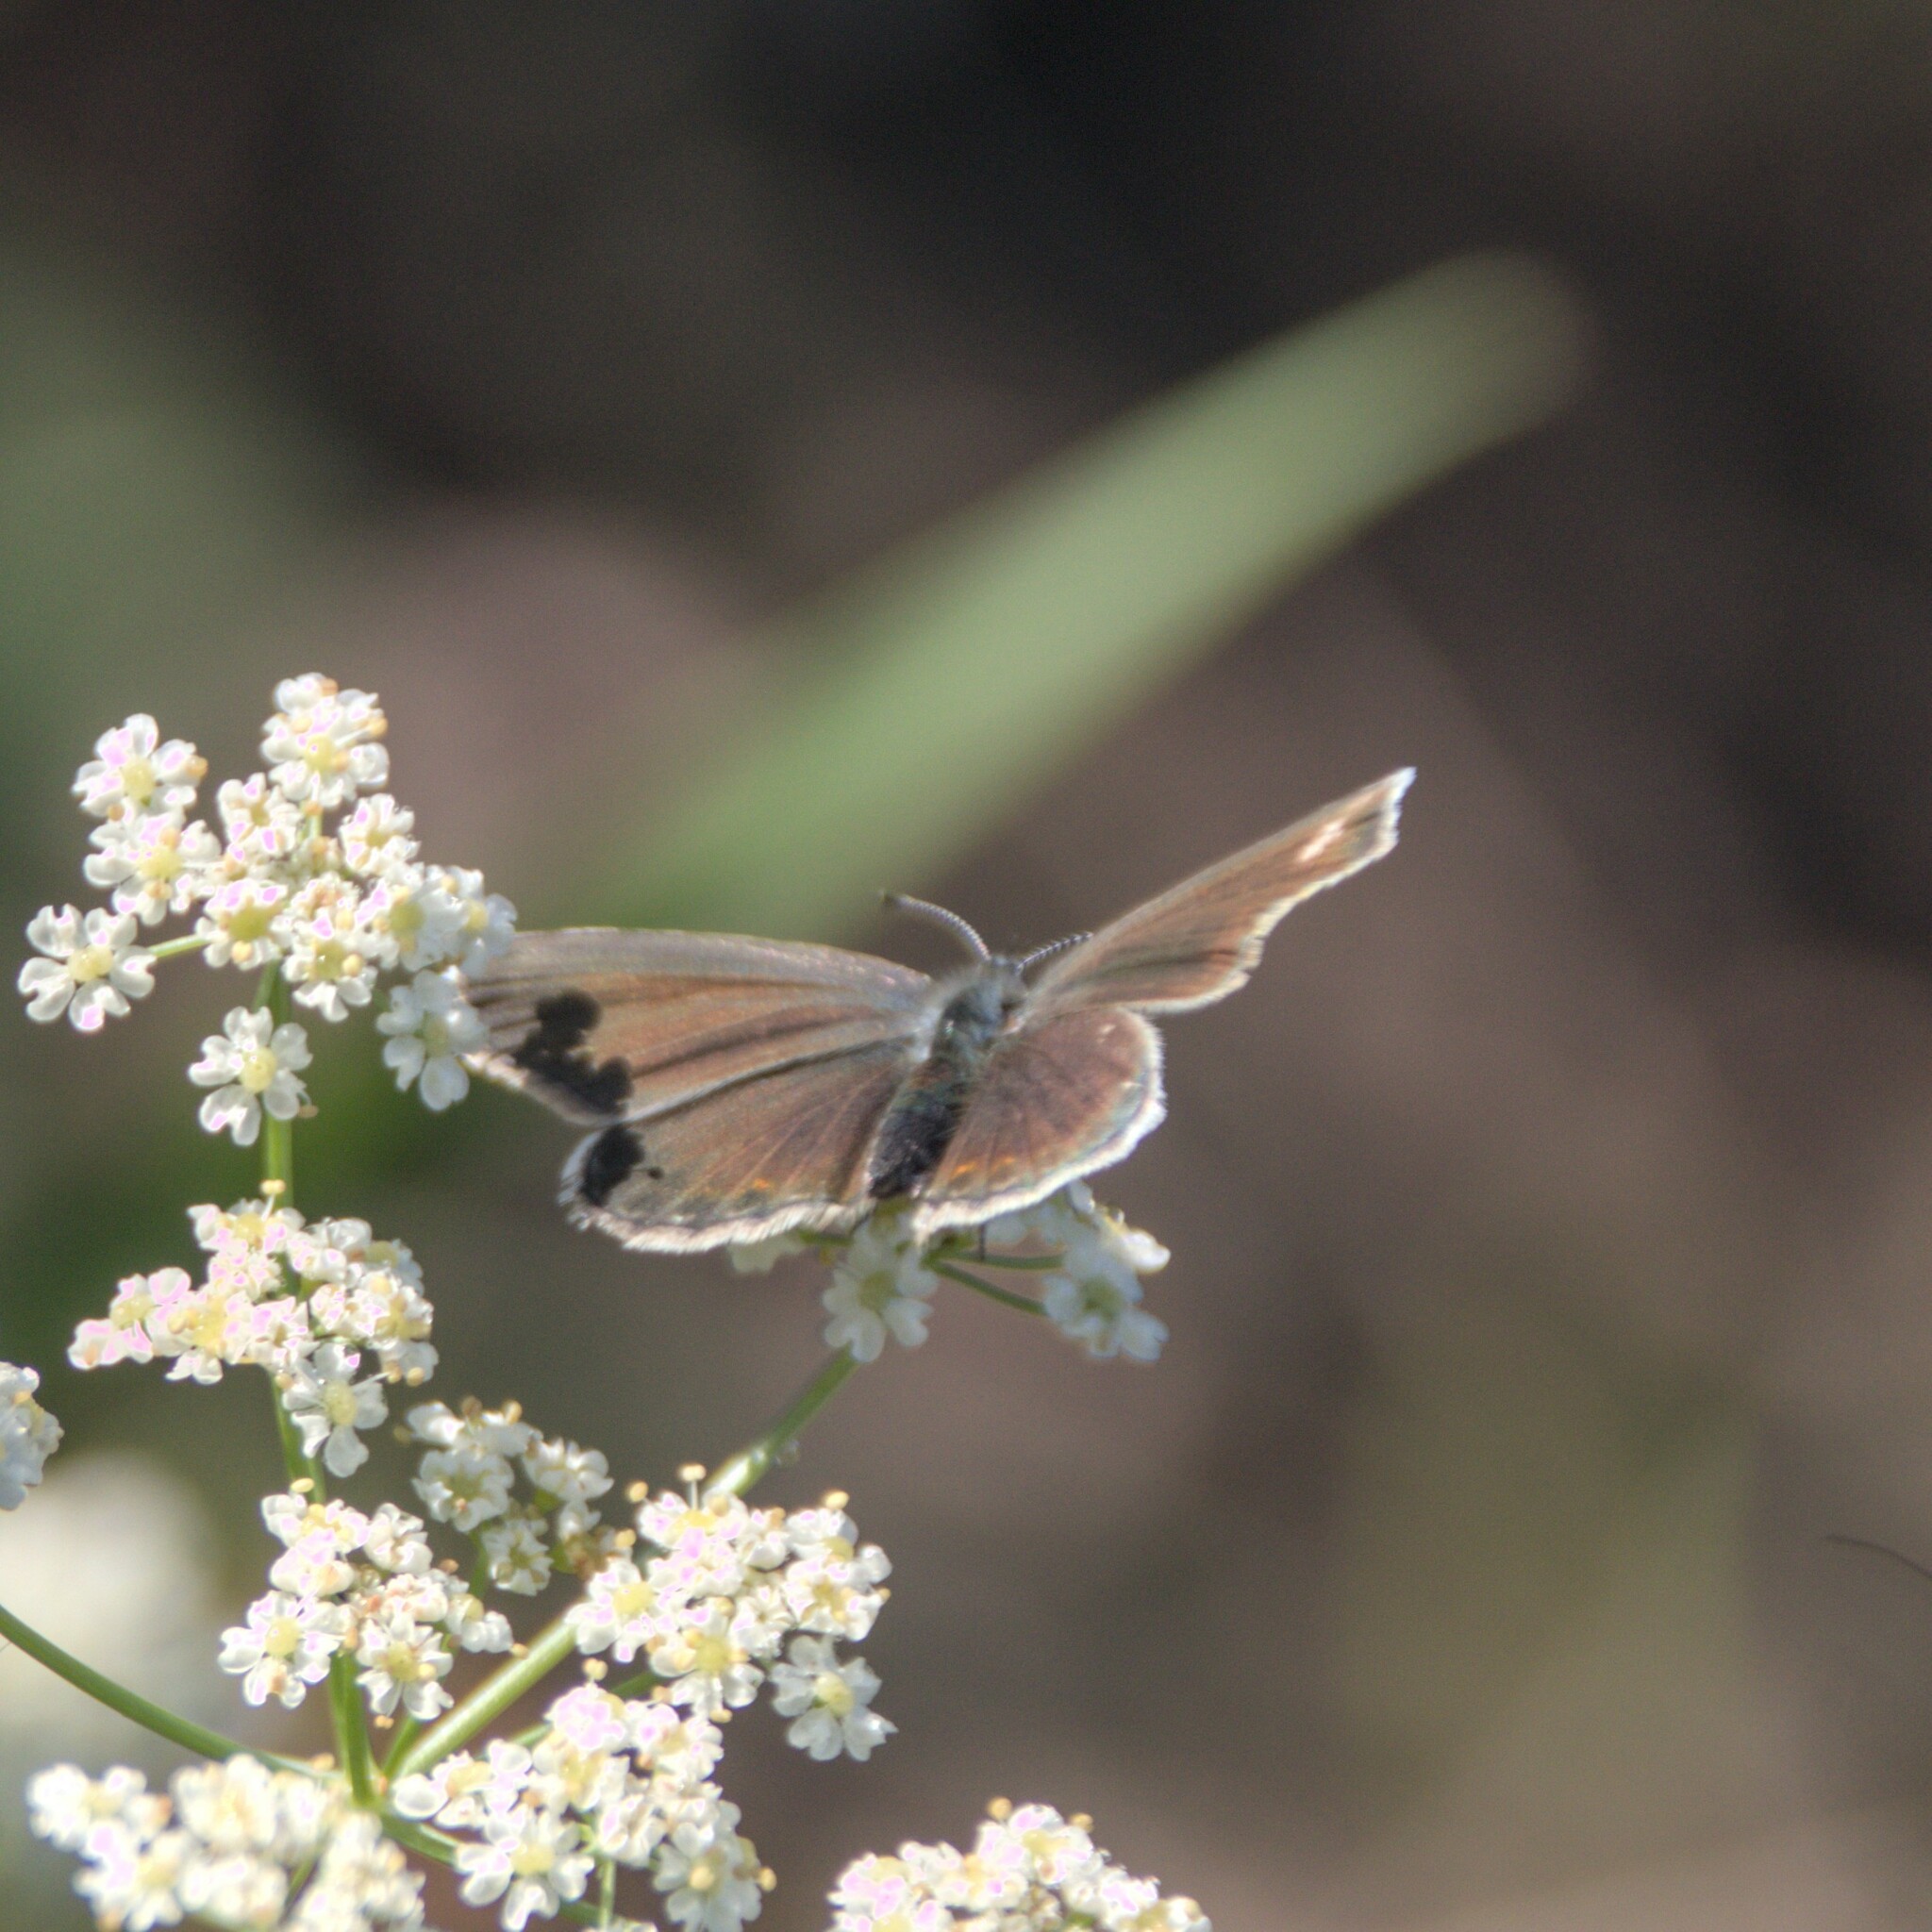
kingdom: Animalia
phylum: Arthropoda
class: Insecta
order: Lepidoptera
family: Lycaenidae
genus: Plebejus
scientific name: Plebejus argus
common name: Silver-studded blue
